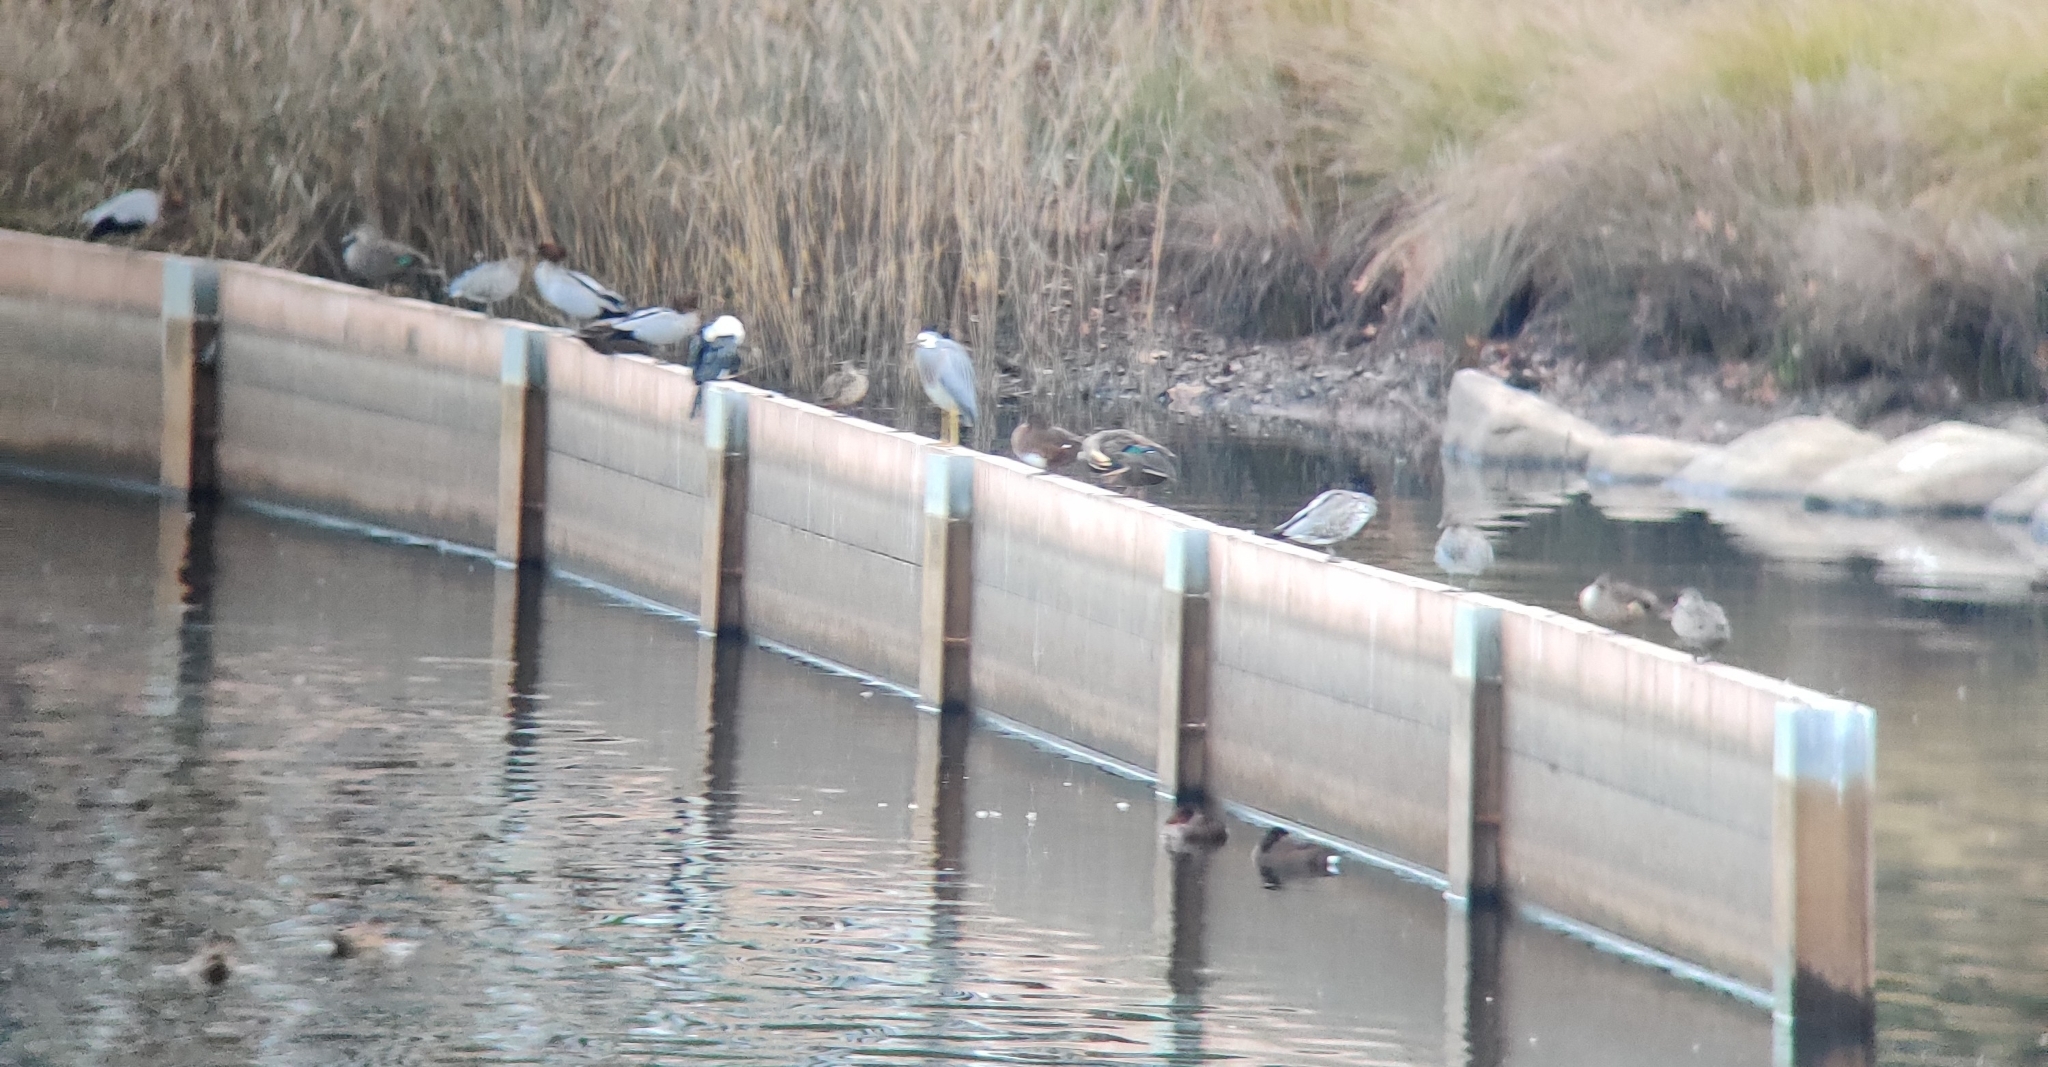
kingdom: Animalia
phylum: Chordata
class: Aves
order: Pelecaniformes
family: Ardeidae
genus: Egretta
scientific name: Egretta novaehollandiae
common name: White-faced heron
